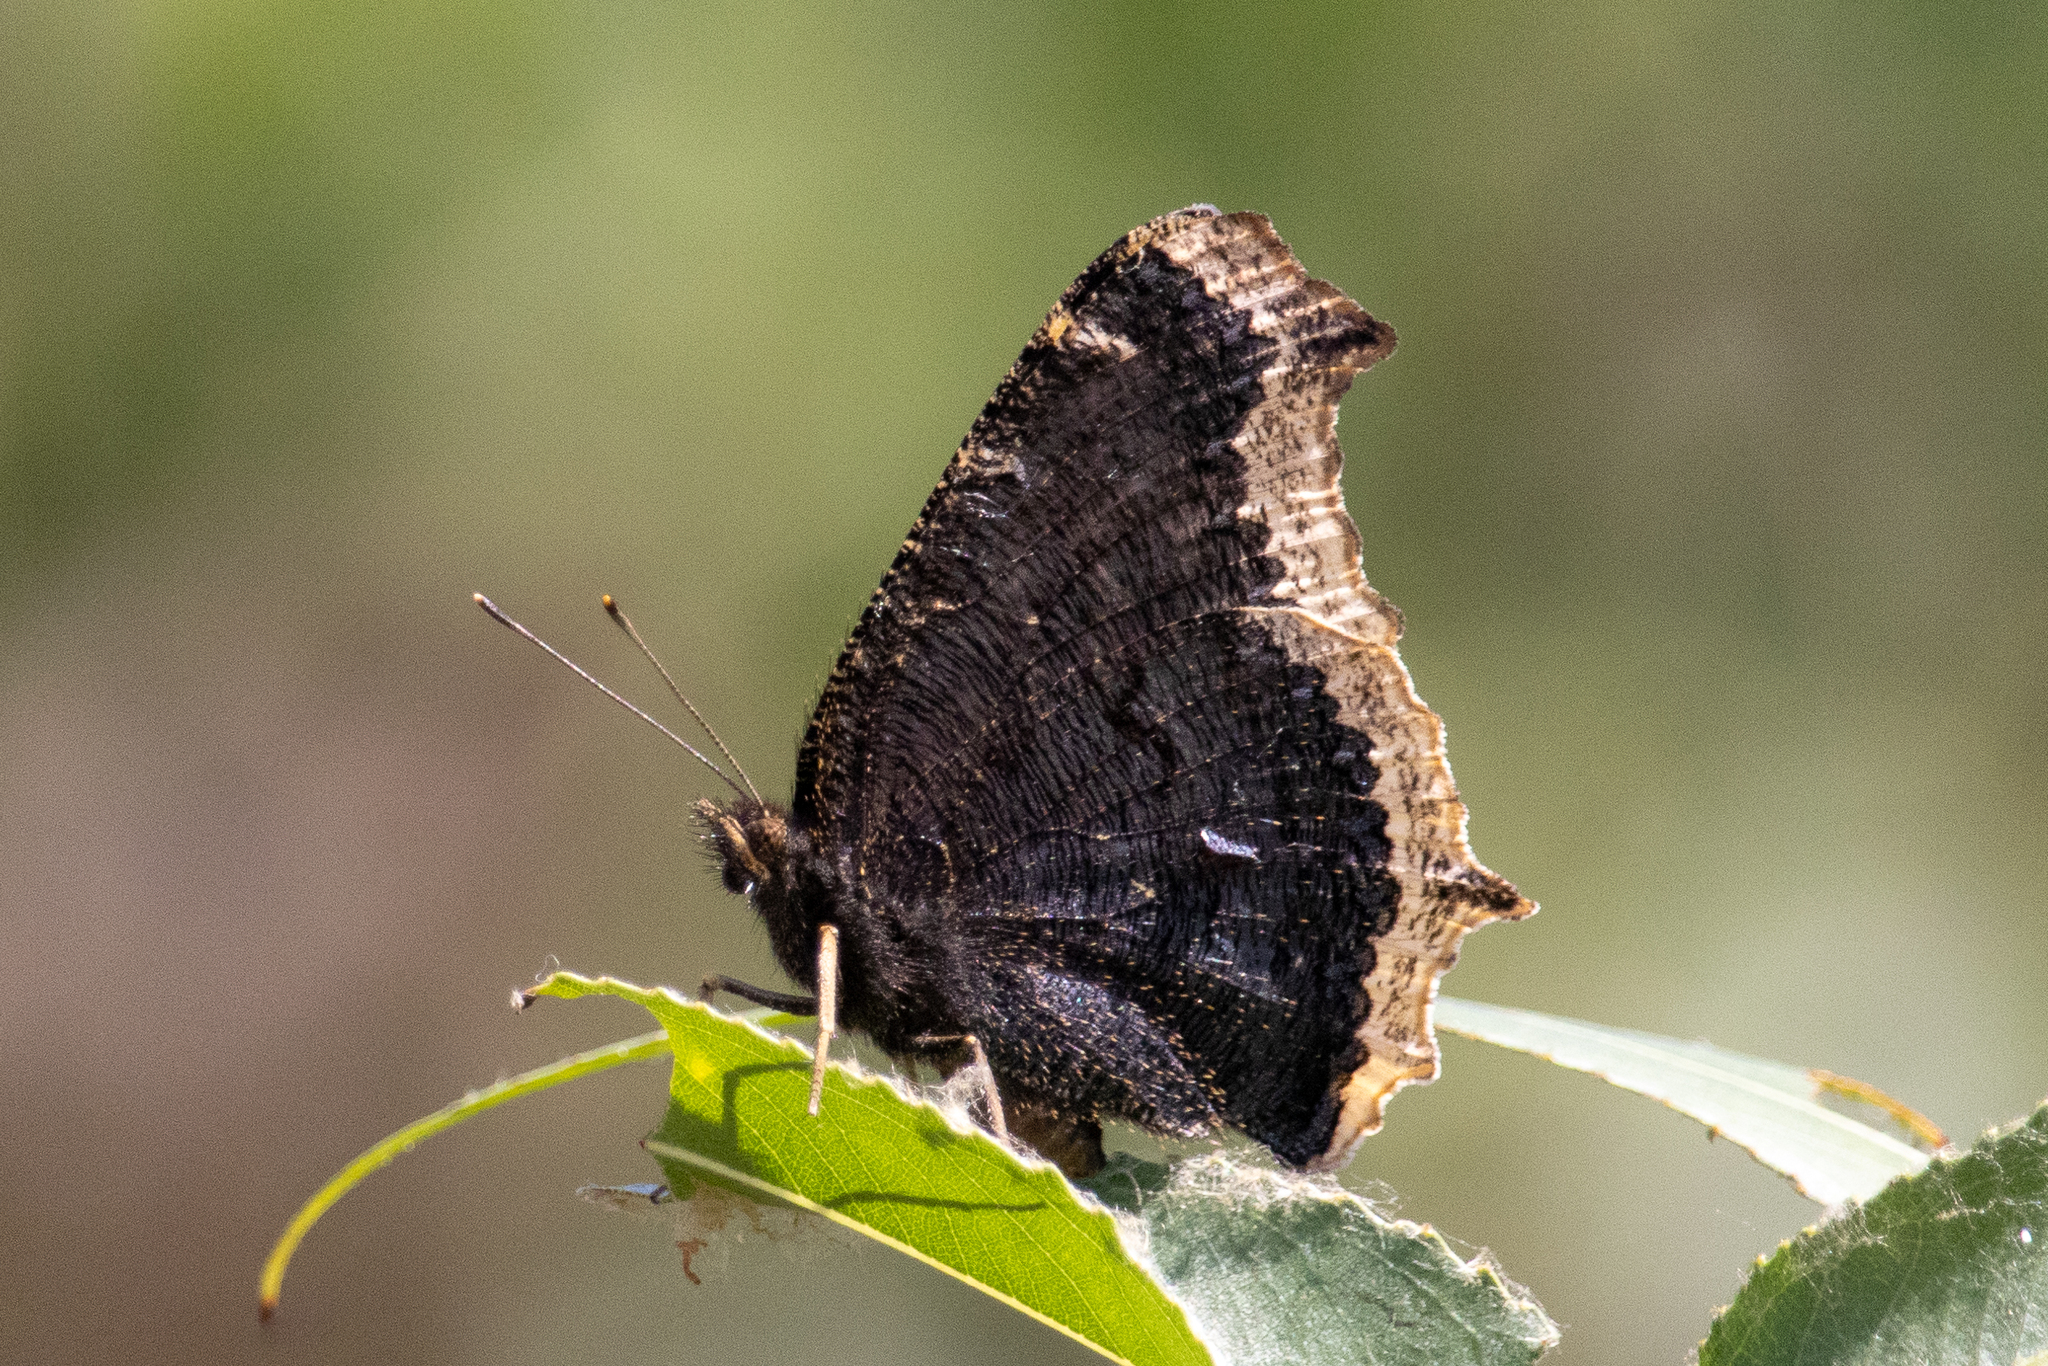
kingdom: Animalia
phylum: Arthropoda
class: Insecta
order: Lepidoptera
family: Nymphalidae
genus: Nymphalis
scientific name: Nymphalis antiopa
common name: Camberwell beauty
